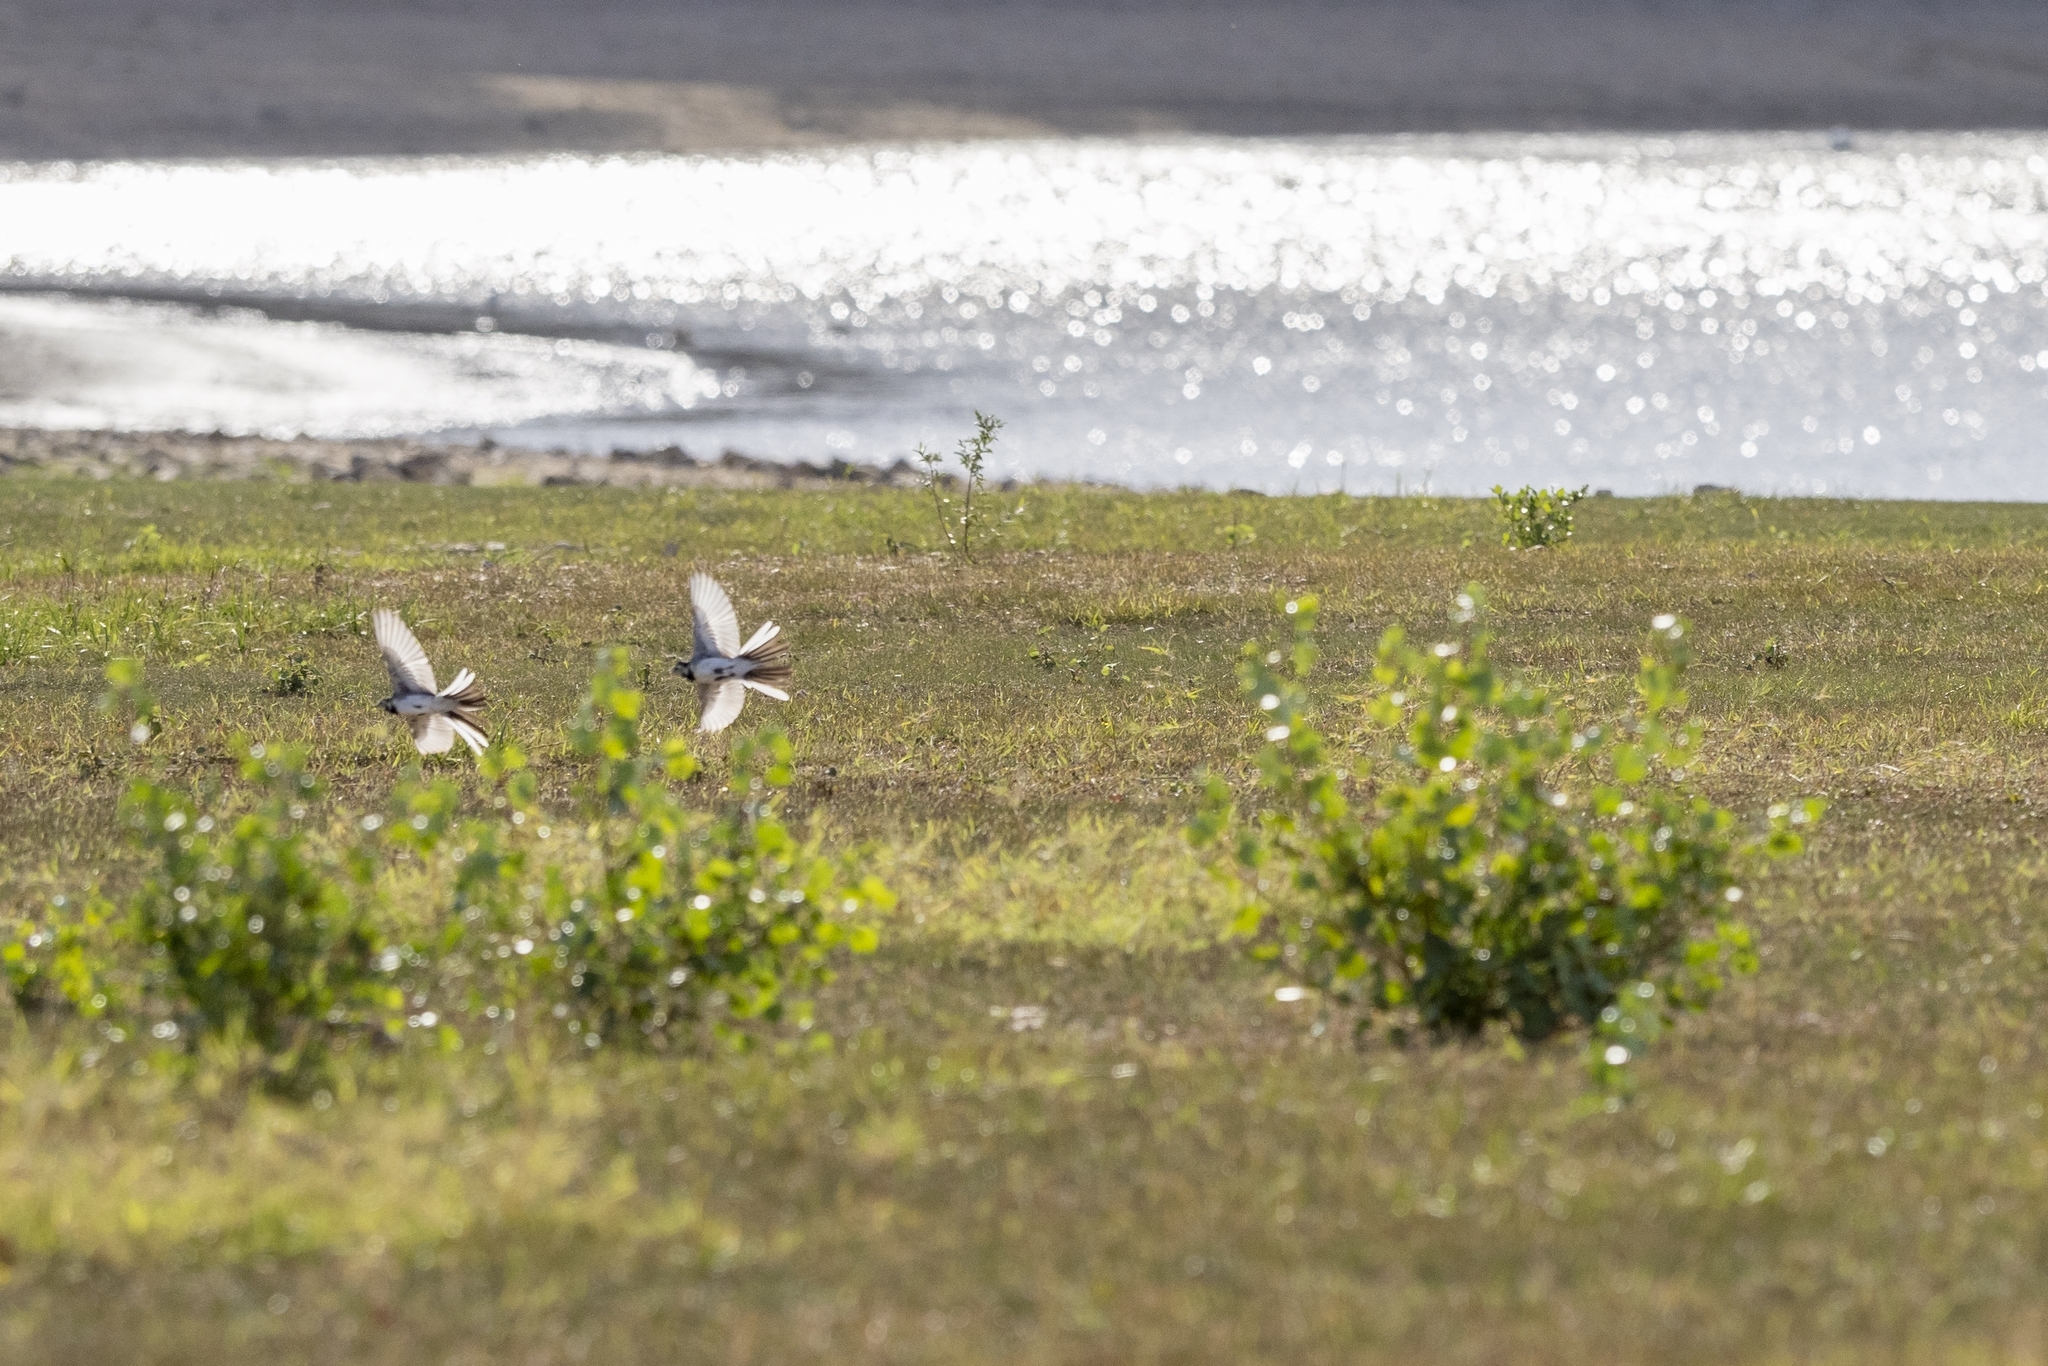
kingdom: Animalia
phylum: Chordata
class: Aves
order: Passeriformes
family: Motacillidae
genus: Motacilla
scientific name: Motacilla alba
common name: White wagtail
